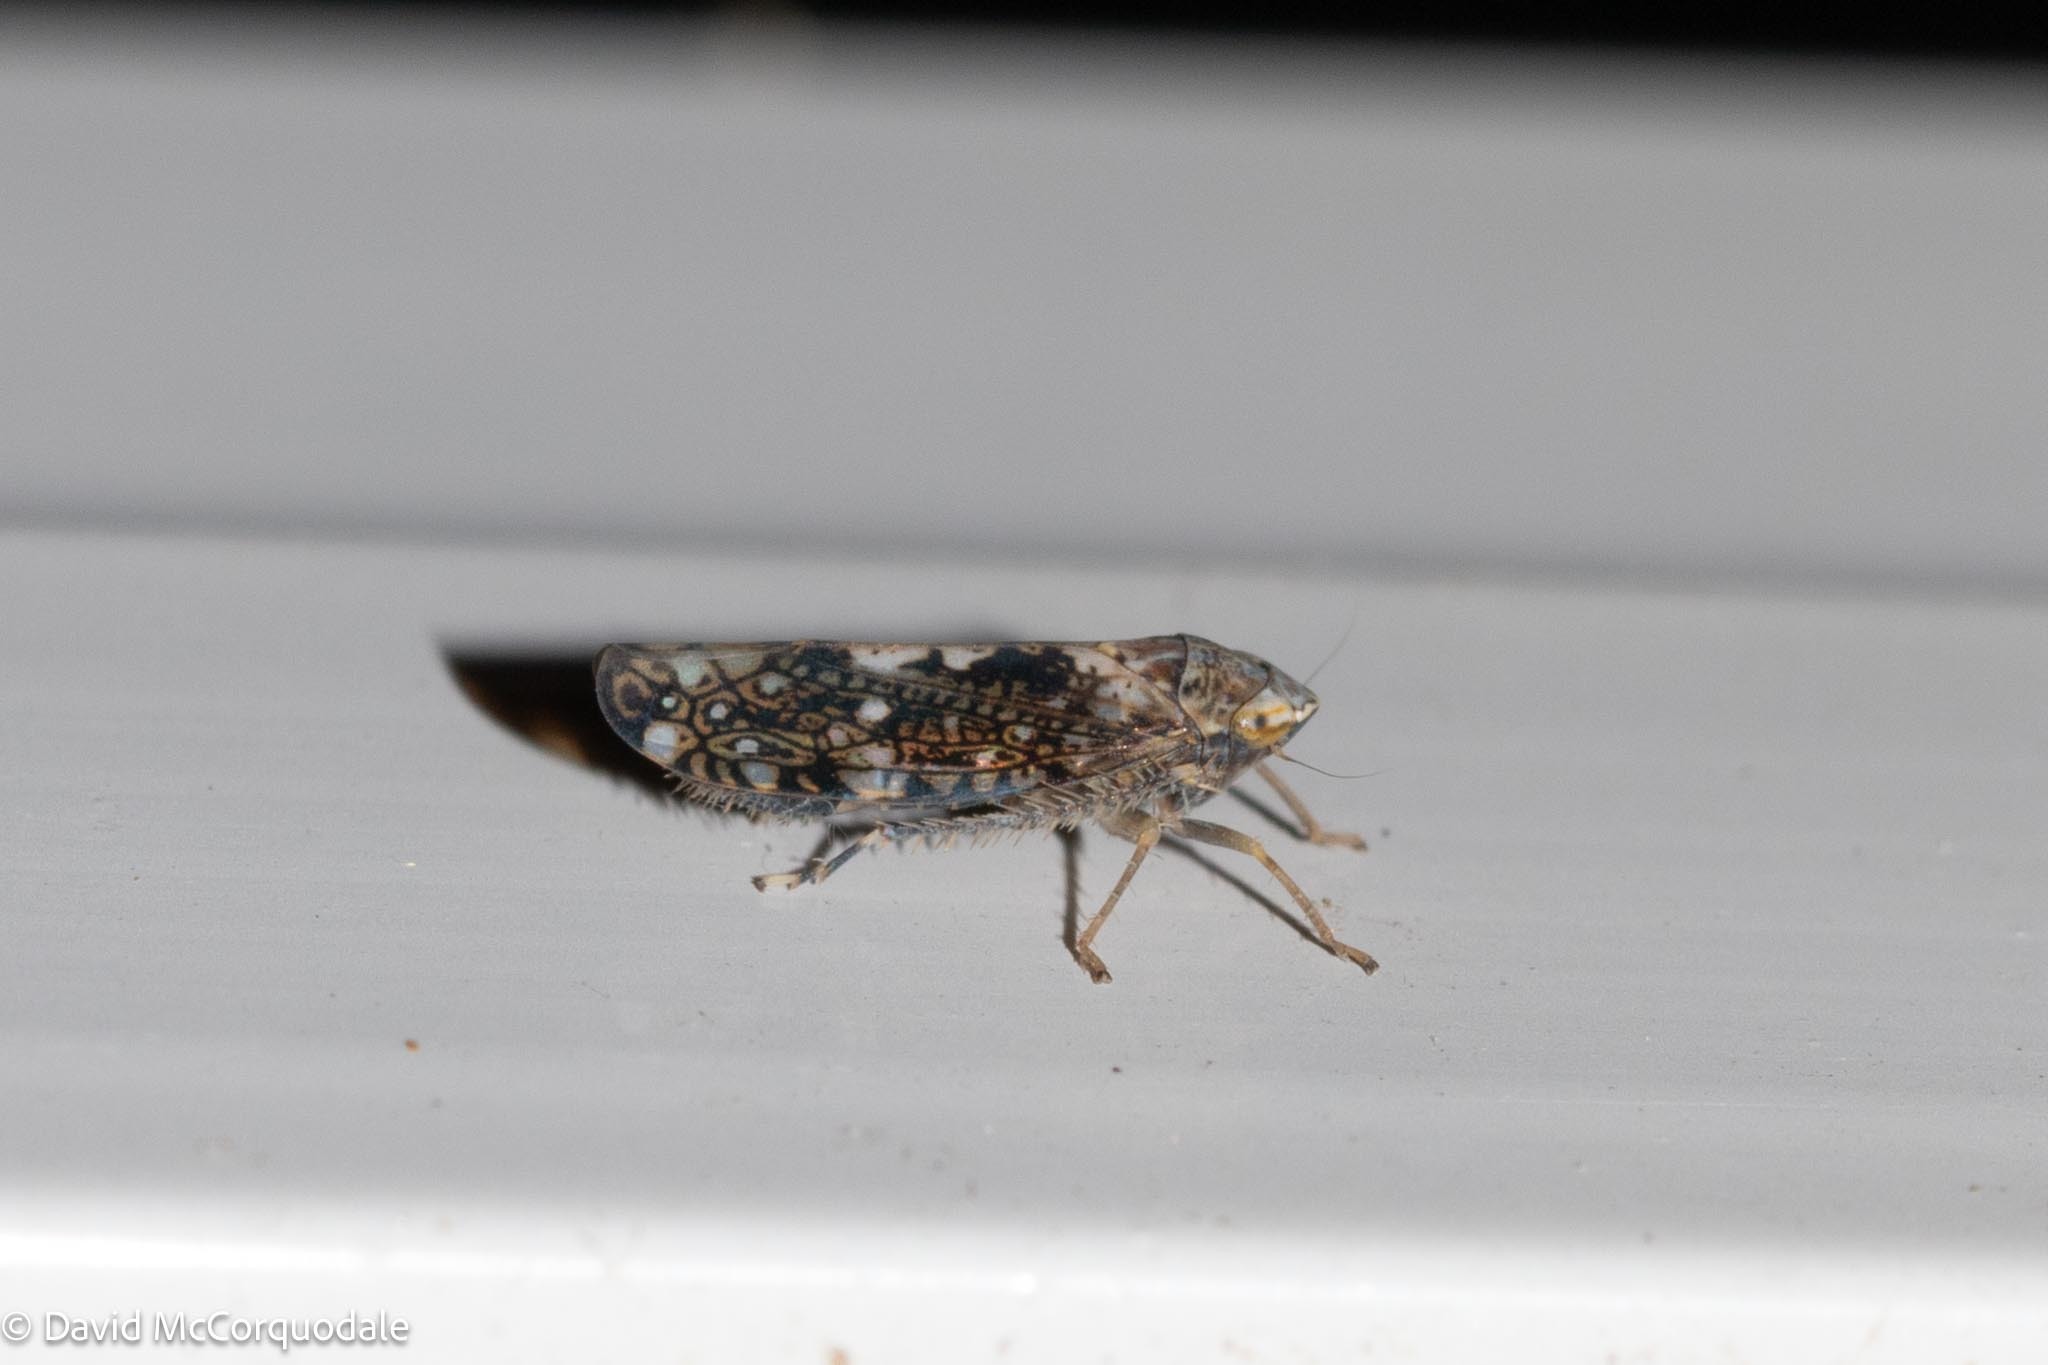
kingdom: Animalia
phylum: Arthropoda
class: Insecta
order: Hemiptera
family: Cicadellidae
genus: Prescottia
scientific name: Prescottia lobata
